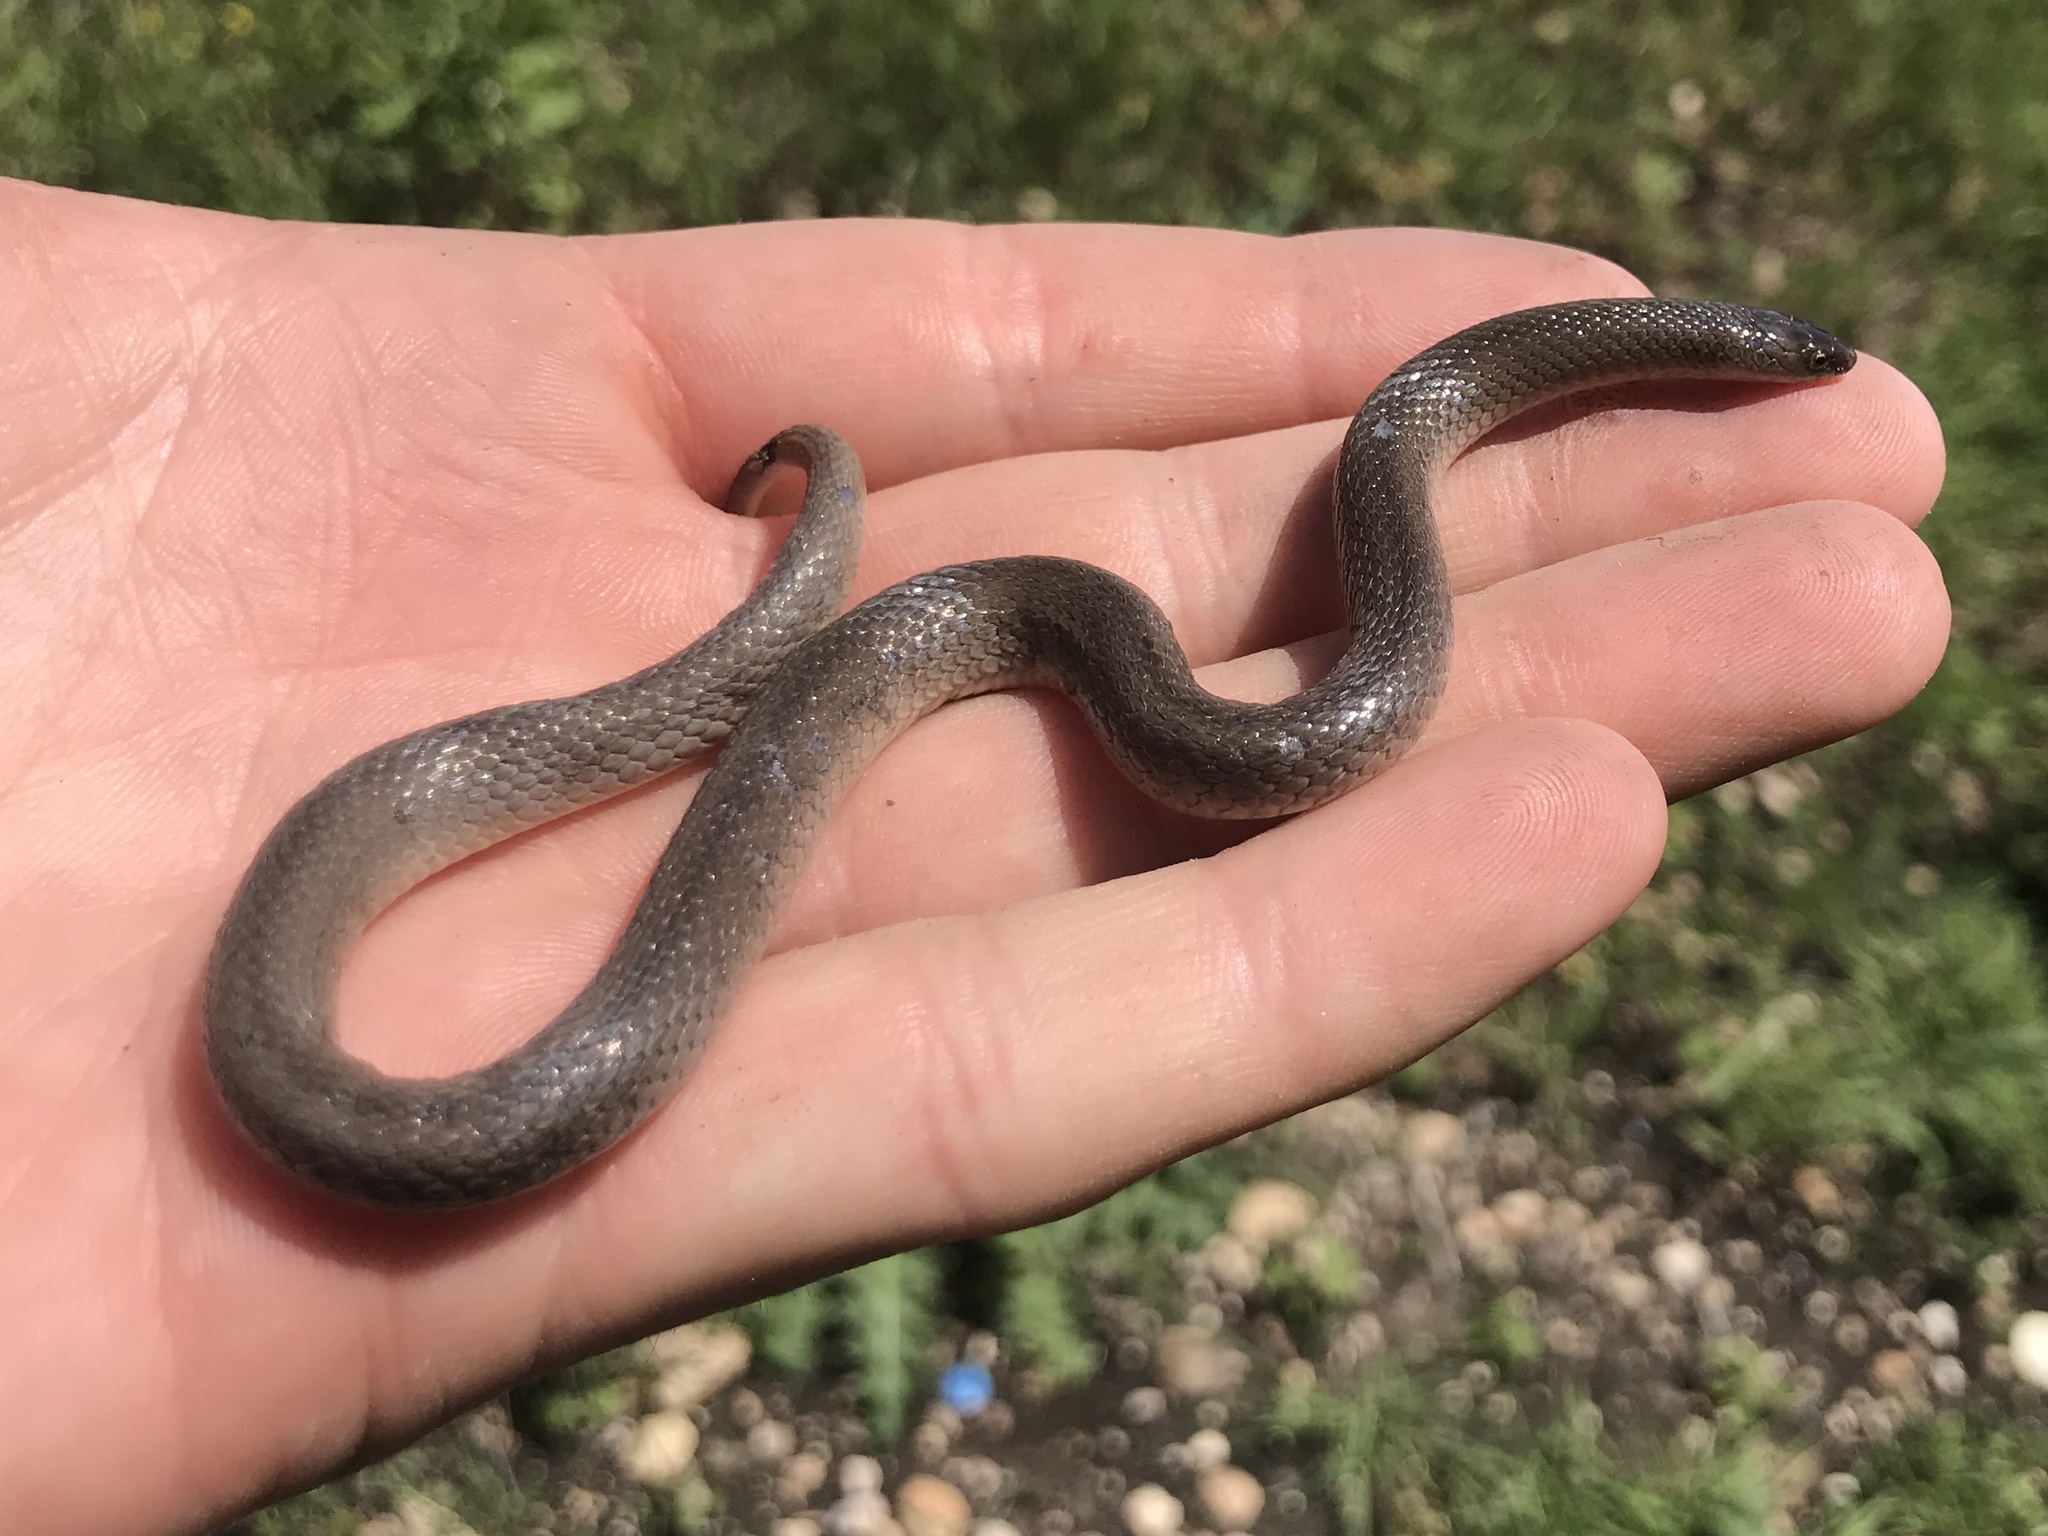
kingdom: Animalia
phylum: Chordata
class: Squamata
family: Colubridae
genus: Haldea
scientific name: Haldea striatula
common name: Rough earth snake
